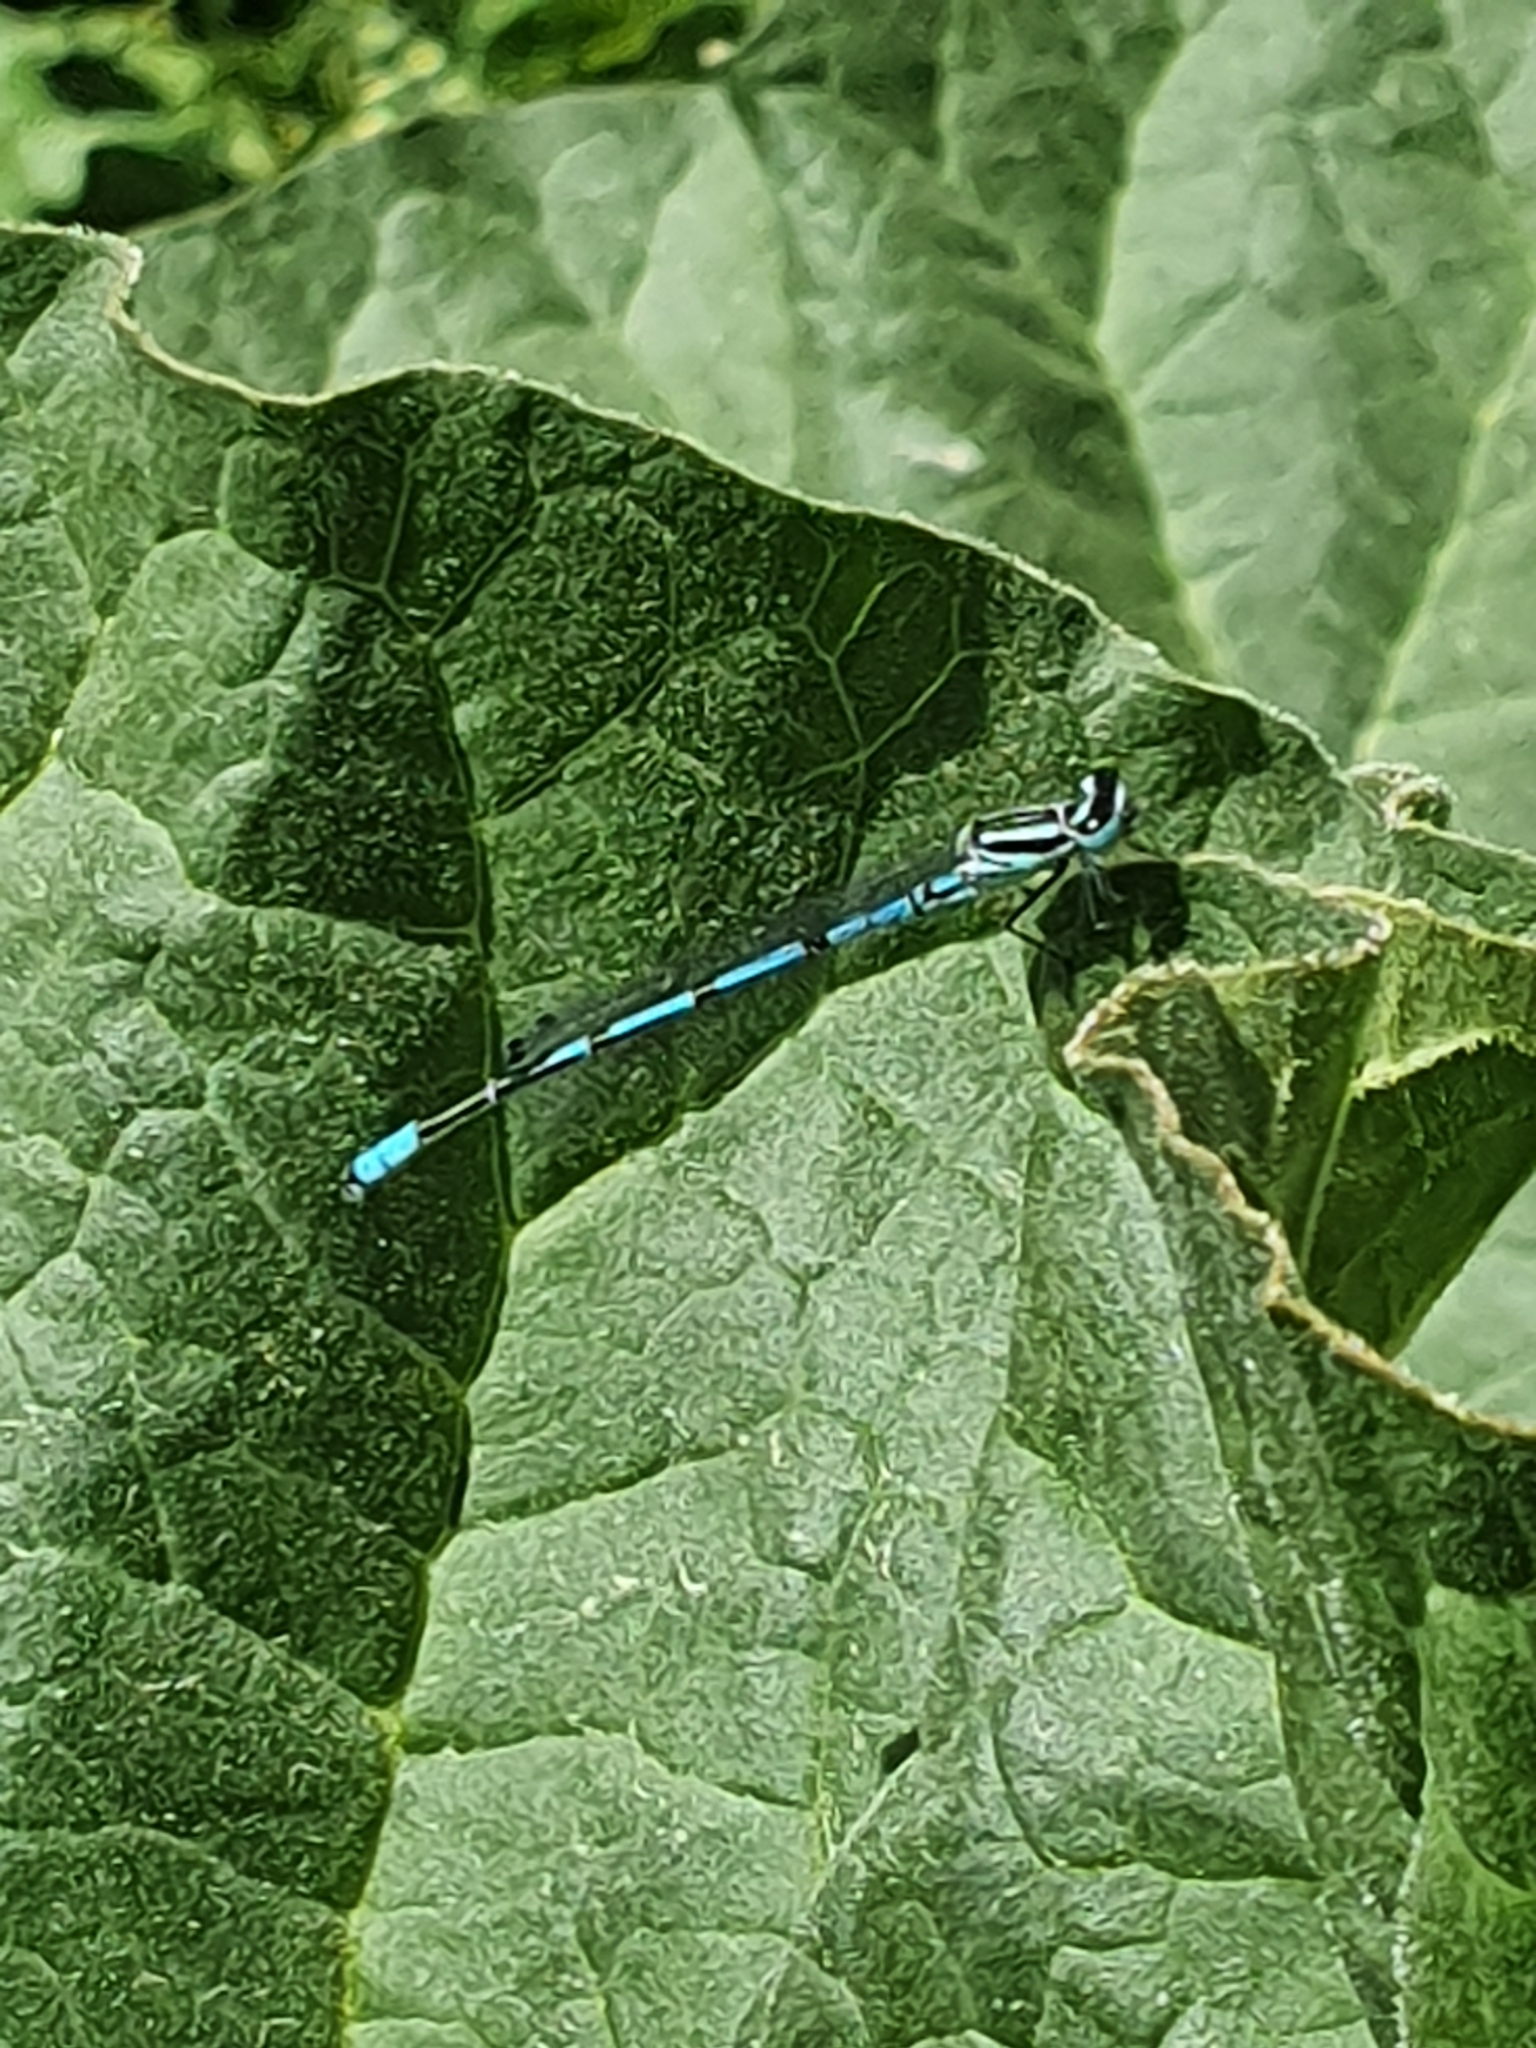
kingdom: Animalia
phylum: Arthropoda
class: Insecta
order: Odonata
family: Coenagrionidae
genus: Coenagrion
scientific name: Coenagrion puella
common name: Azure damselfly
